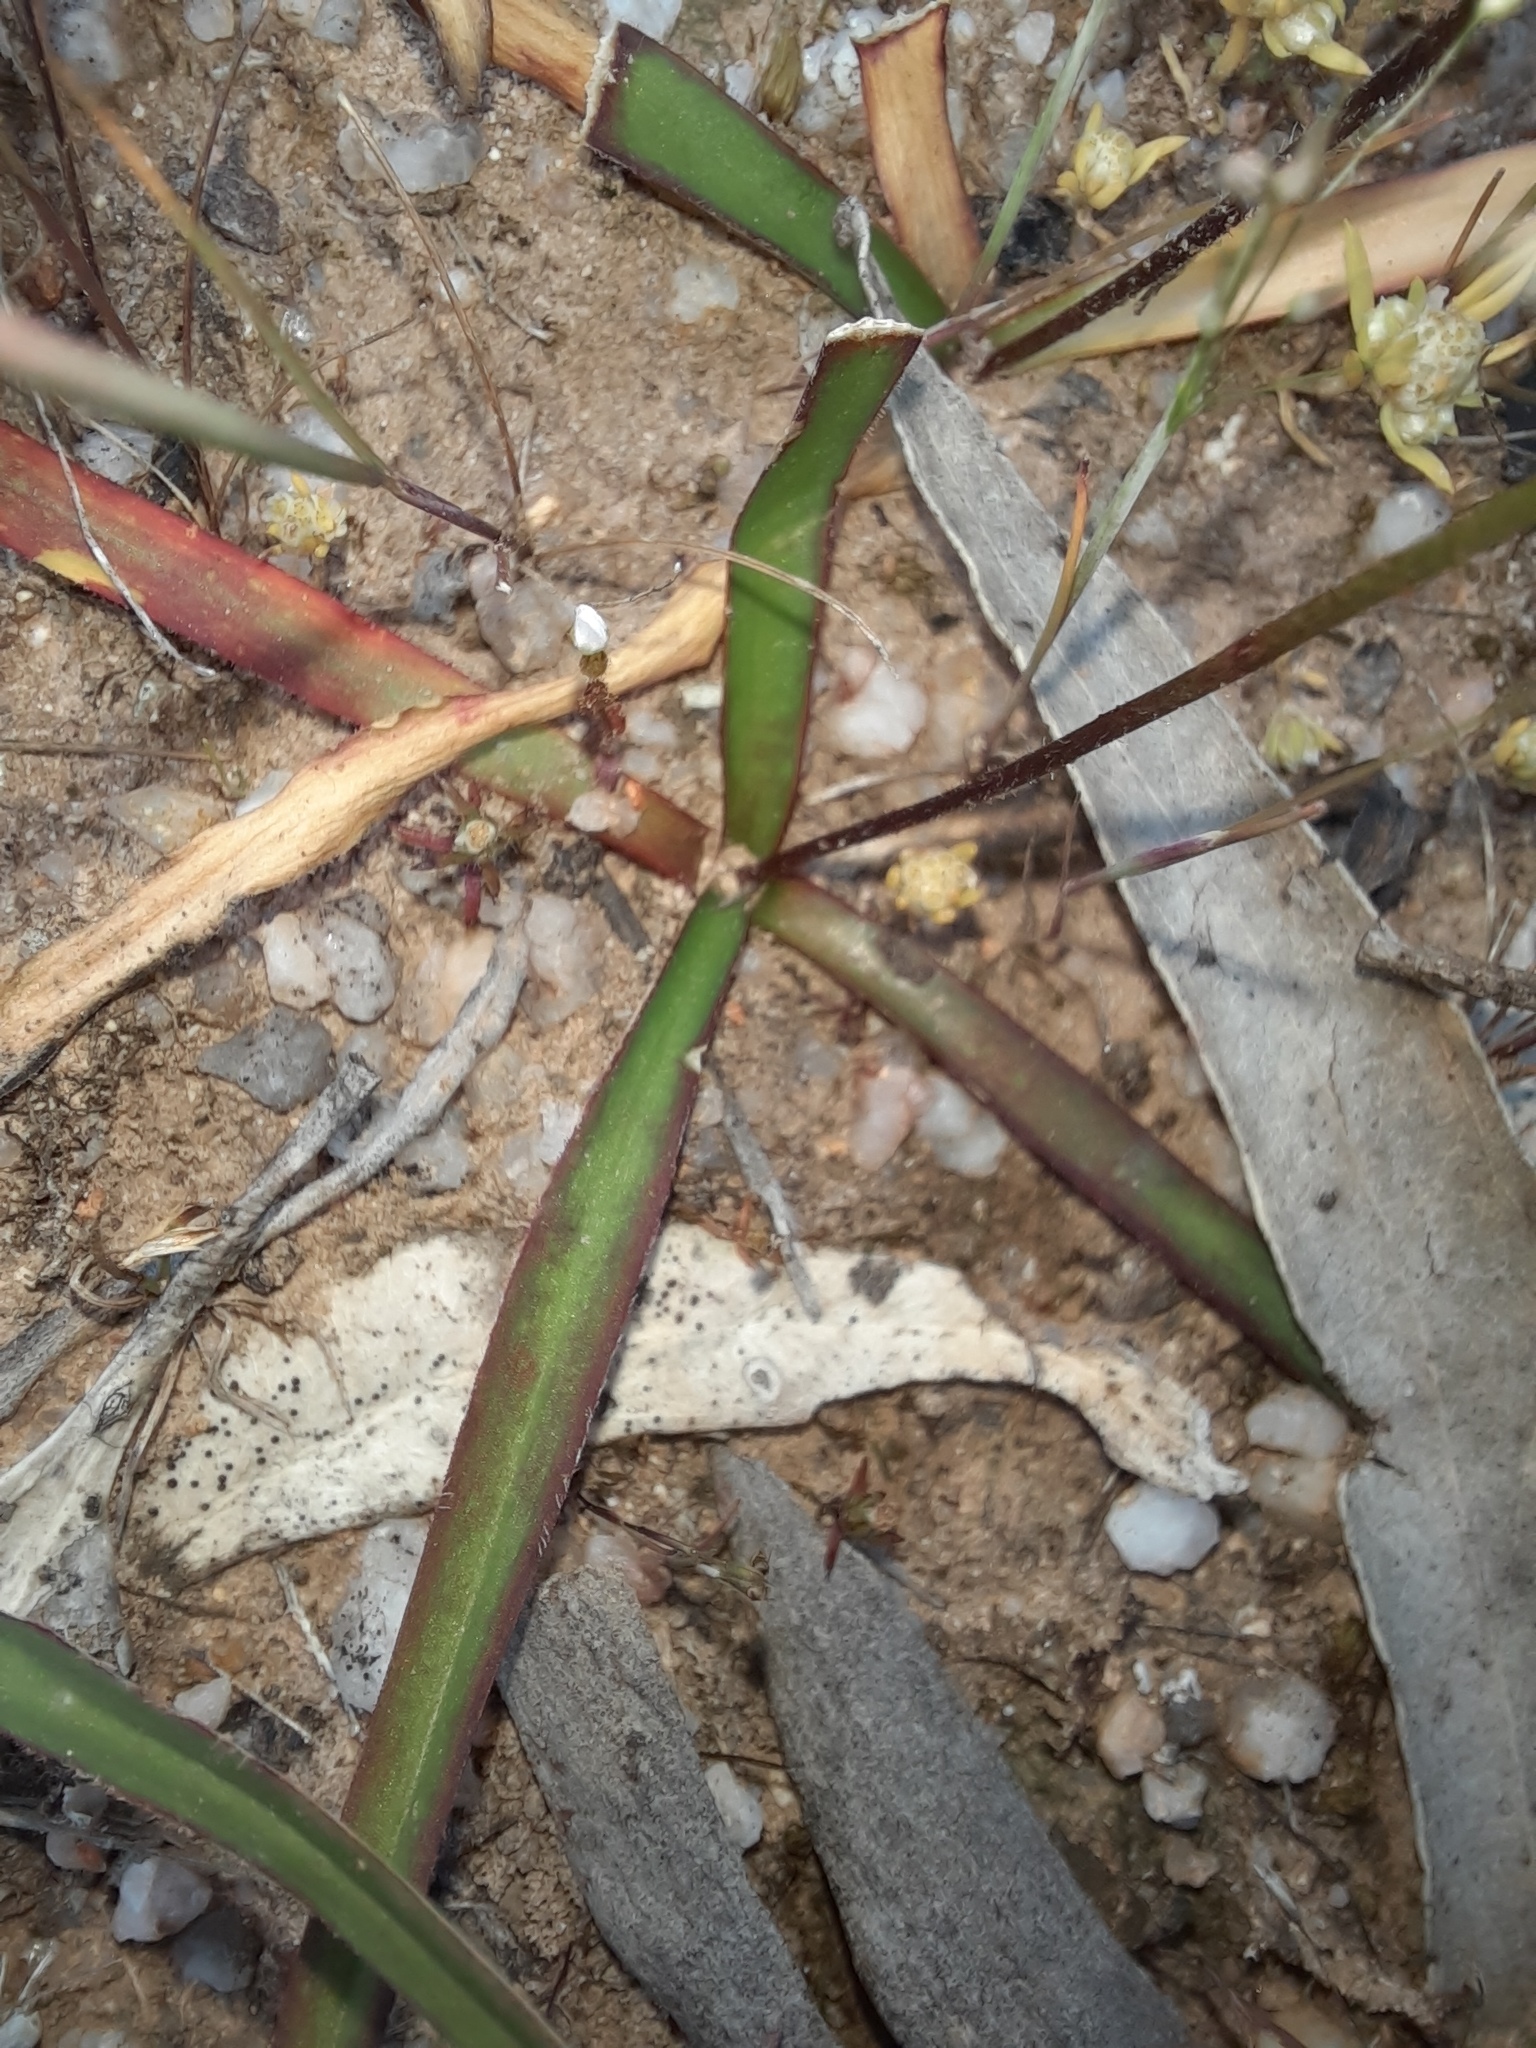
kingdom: Plantae
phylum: Tracheophyta
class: Liliopsida
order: Asparagales
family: Asphodelaceae
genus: Chamaescilla
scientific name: Chamaescilla corymbosa
